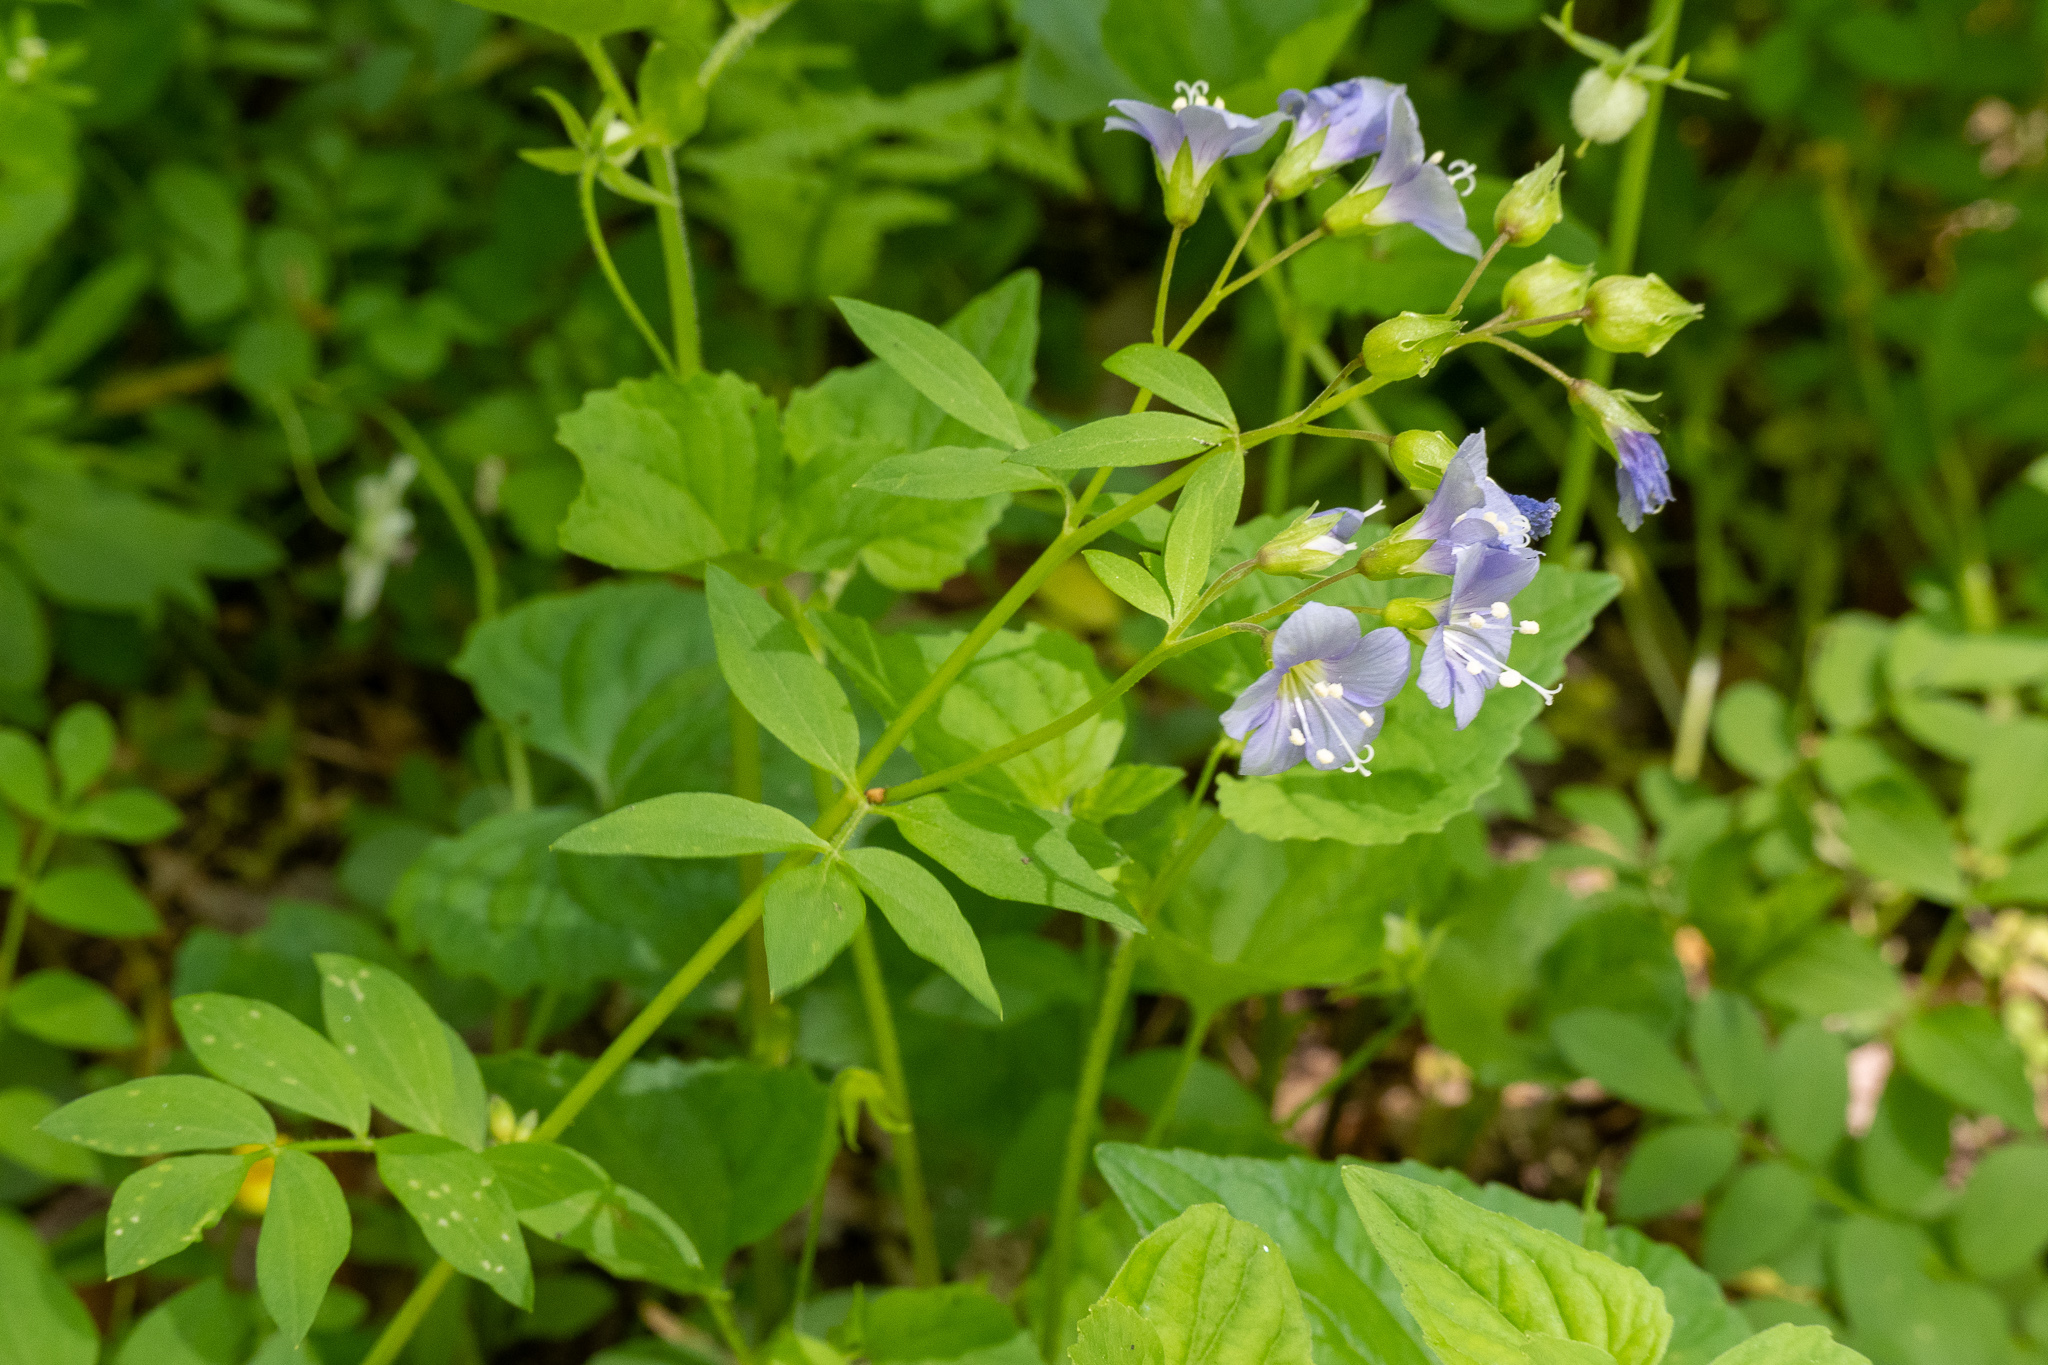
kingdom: Plantae
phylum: Tracheophyta
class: Magnoliopsida
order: Ericales
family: Polemoniaceae
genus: Polemonium
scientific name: Polemonium reptans
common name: Creeping jacob's-ladder
